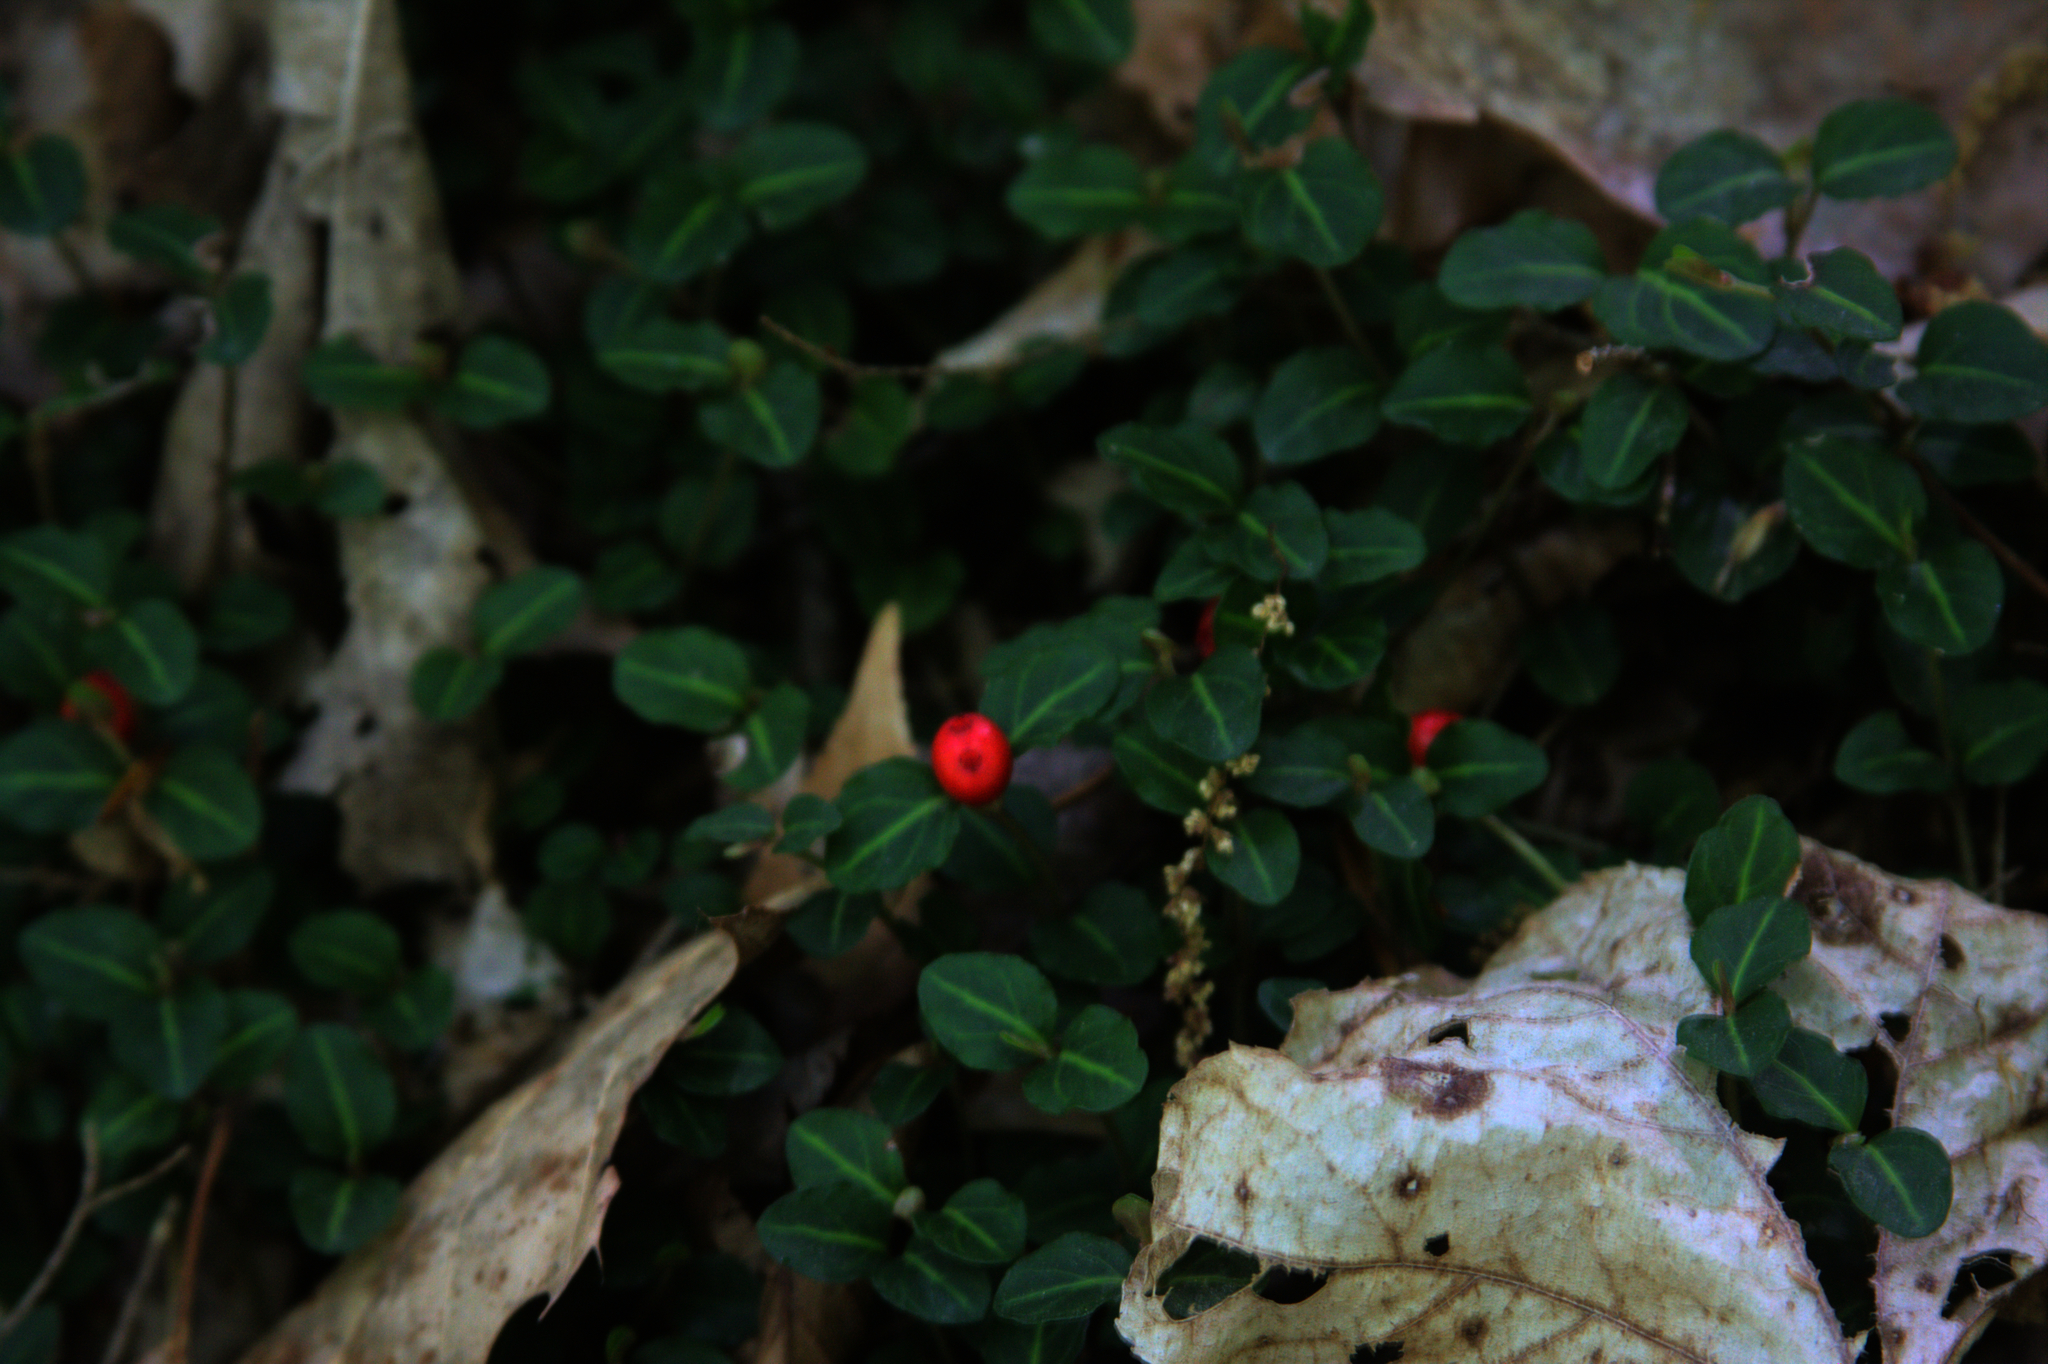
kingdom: Plantae
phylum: Tracheophyta
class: Magnoliopsida
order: Gentianales
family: Rubiaceae
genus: Mitchella
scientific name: Mitchella repens
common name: Partridge-berry
